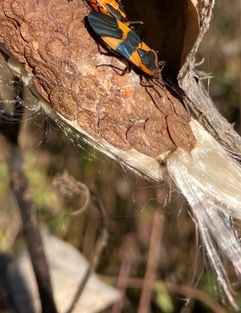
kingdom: Animalia
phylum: Arthropoda
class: Insecta
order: Hemiptera
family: Lygaeidae
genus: Oncopeltus
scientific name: Oncopeltus fasciatus
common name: Large milkweed bug
